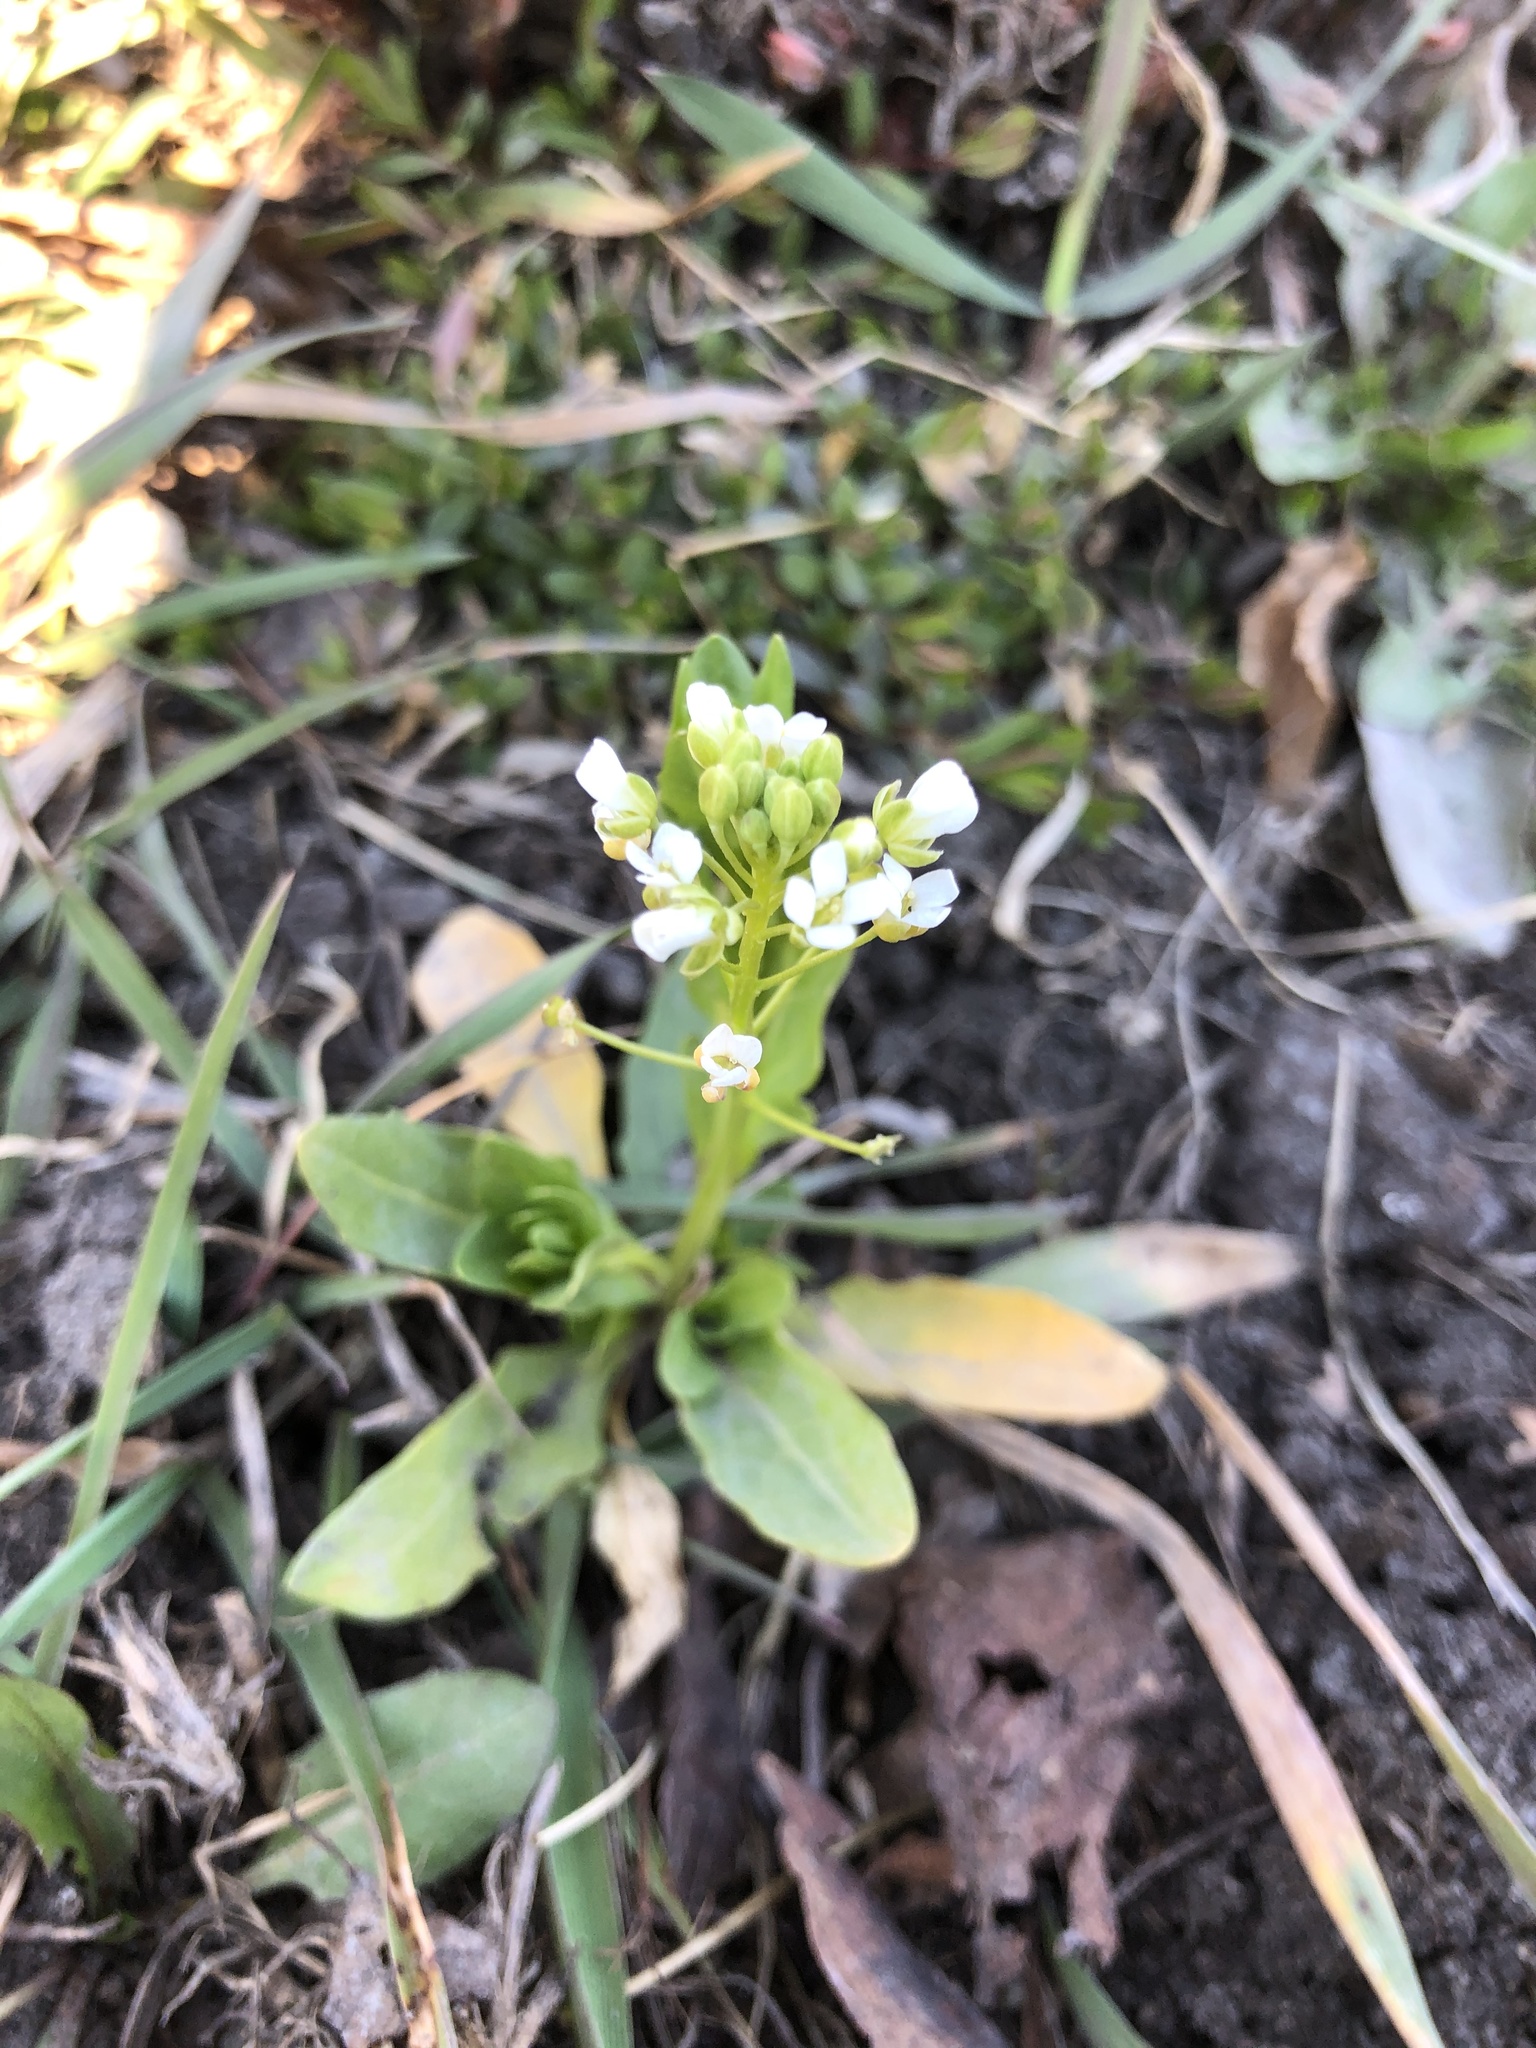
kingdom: Plantae
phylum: Tracheophyta
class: Magnoliopsida
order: Brassicales
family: Brassicaceae
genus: Thlaspi
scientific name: Thlaspi arvense
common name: Field pennycress
